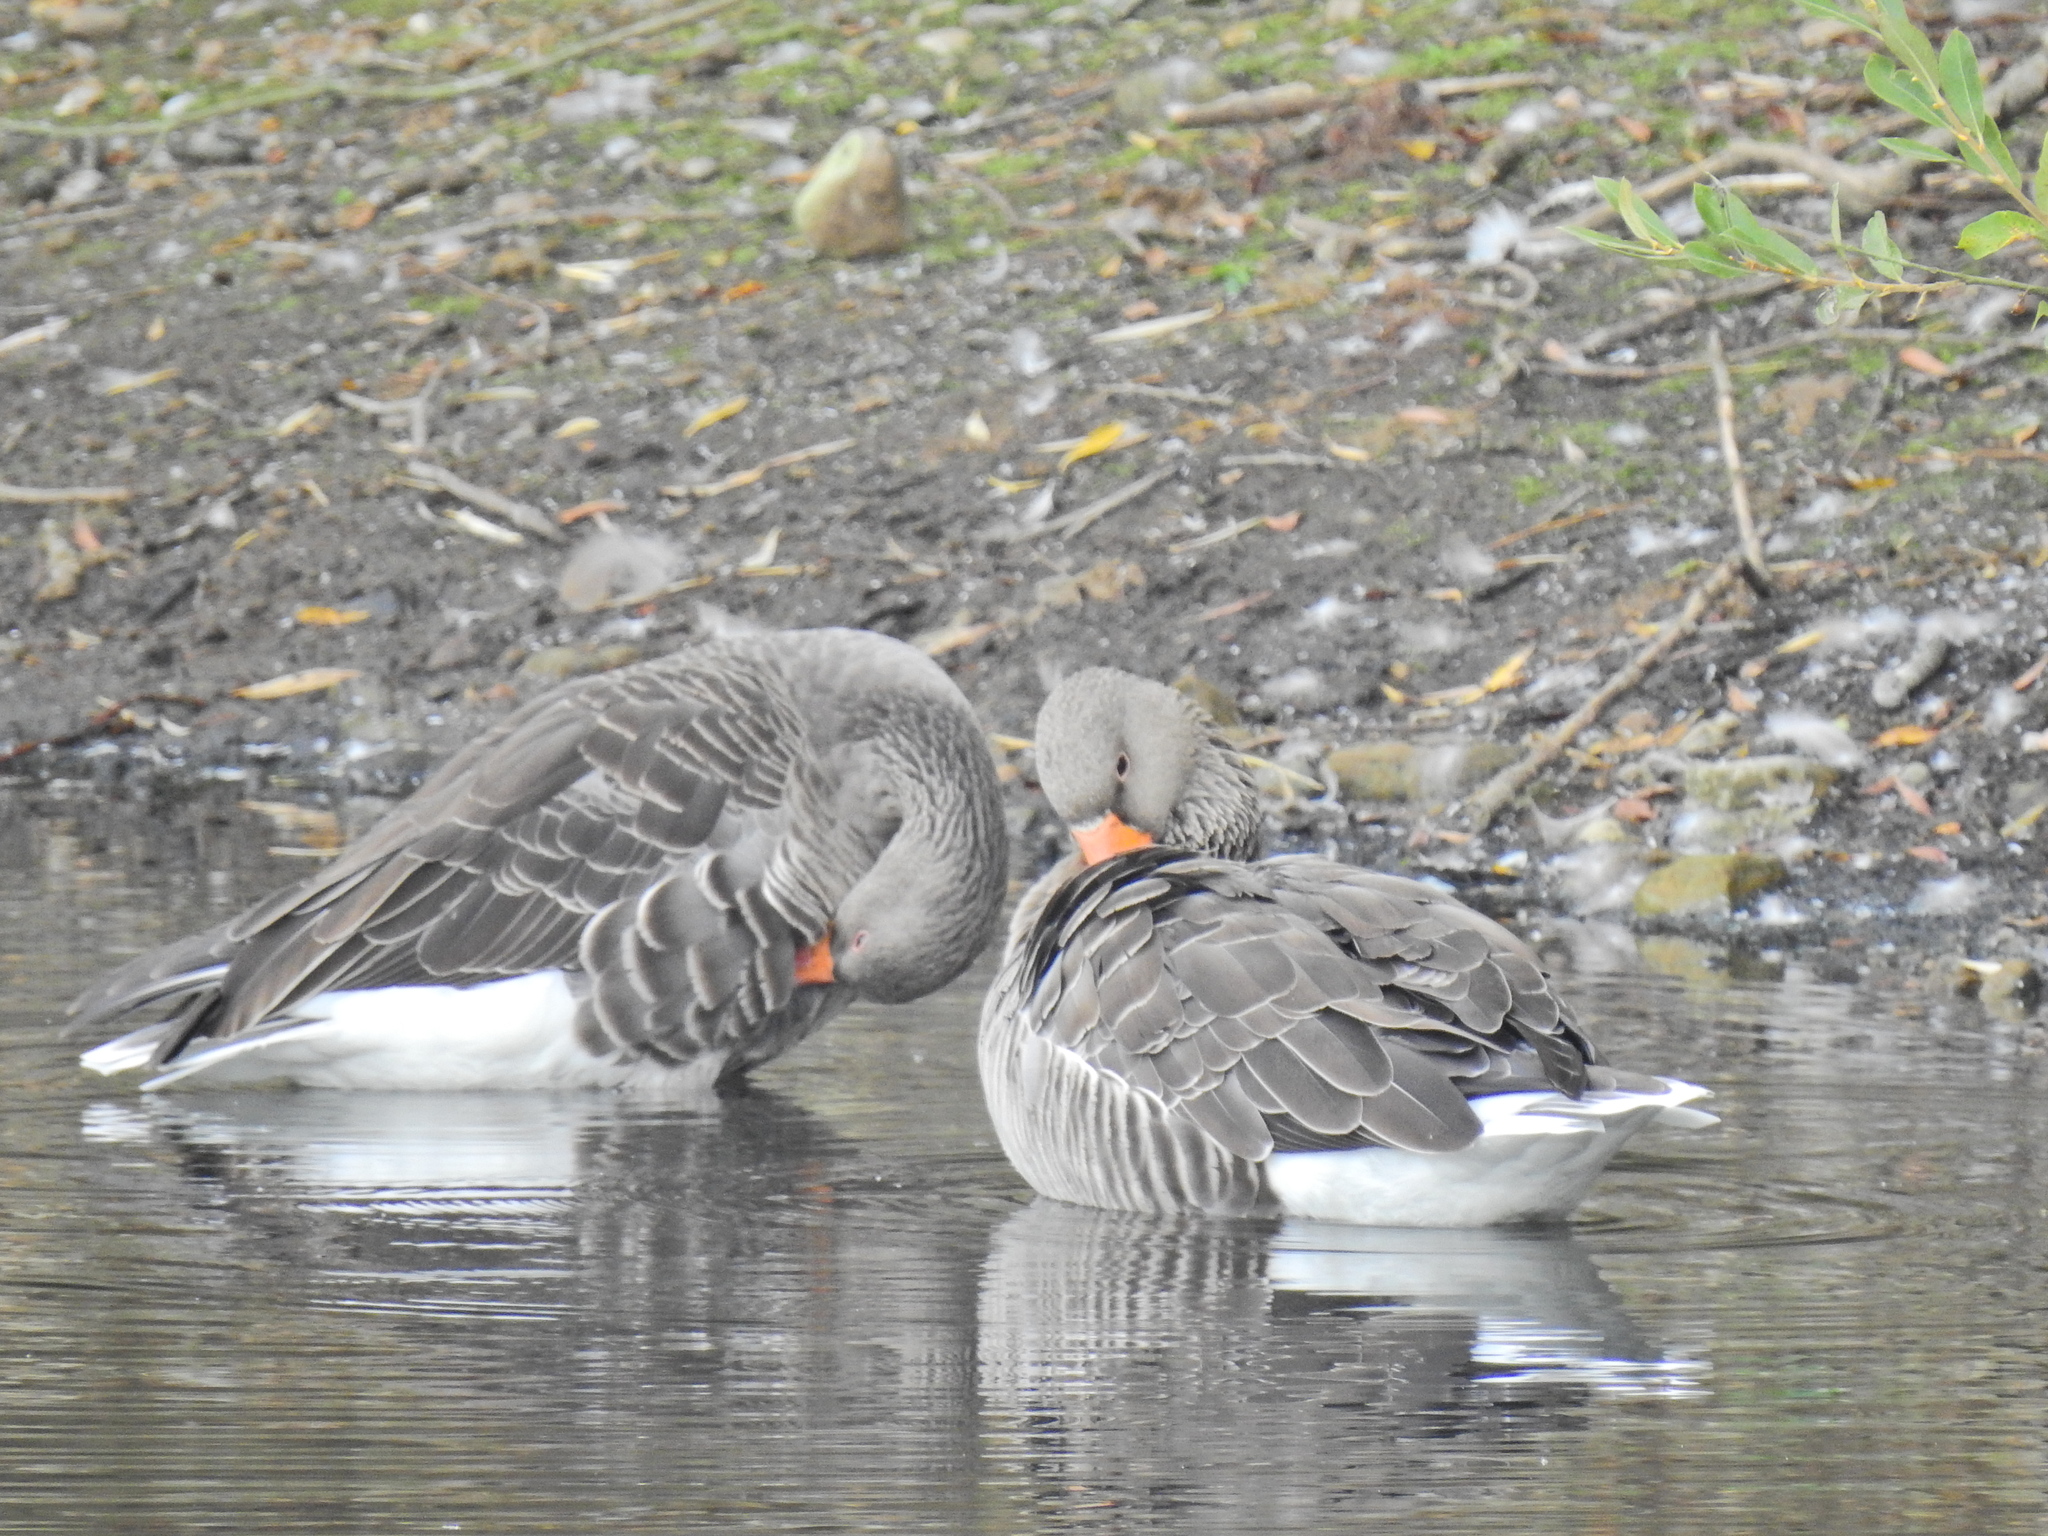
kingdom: Animalia
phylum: Chordata
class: Aves
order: Anseriformes
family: Anatidae
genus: Anser
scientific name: Anser anser
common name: Greylag goose
